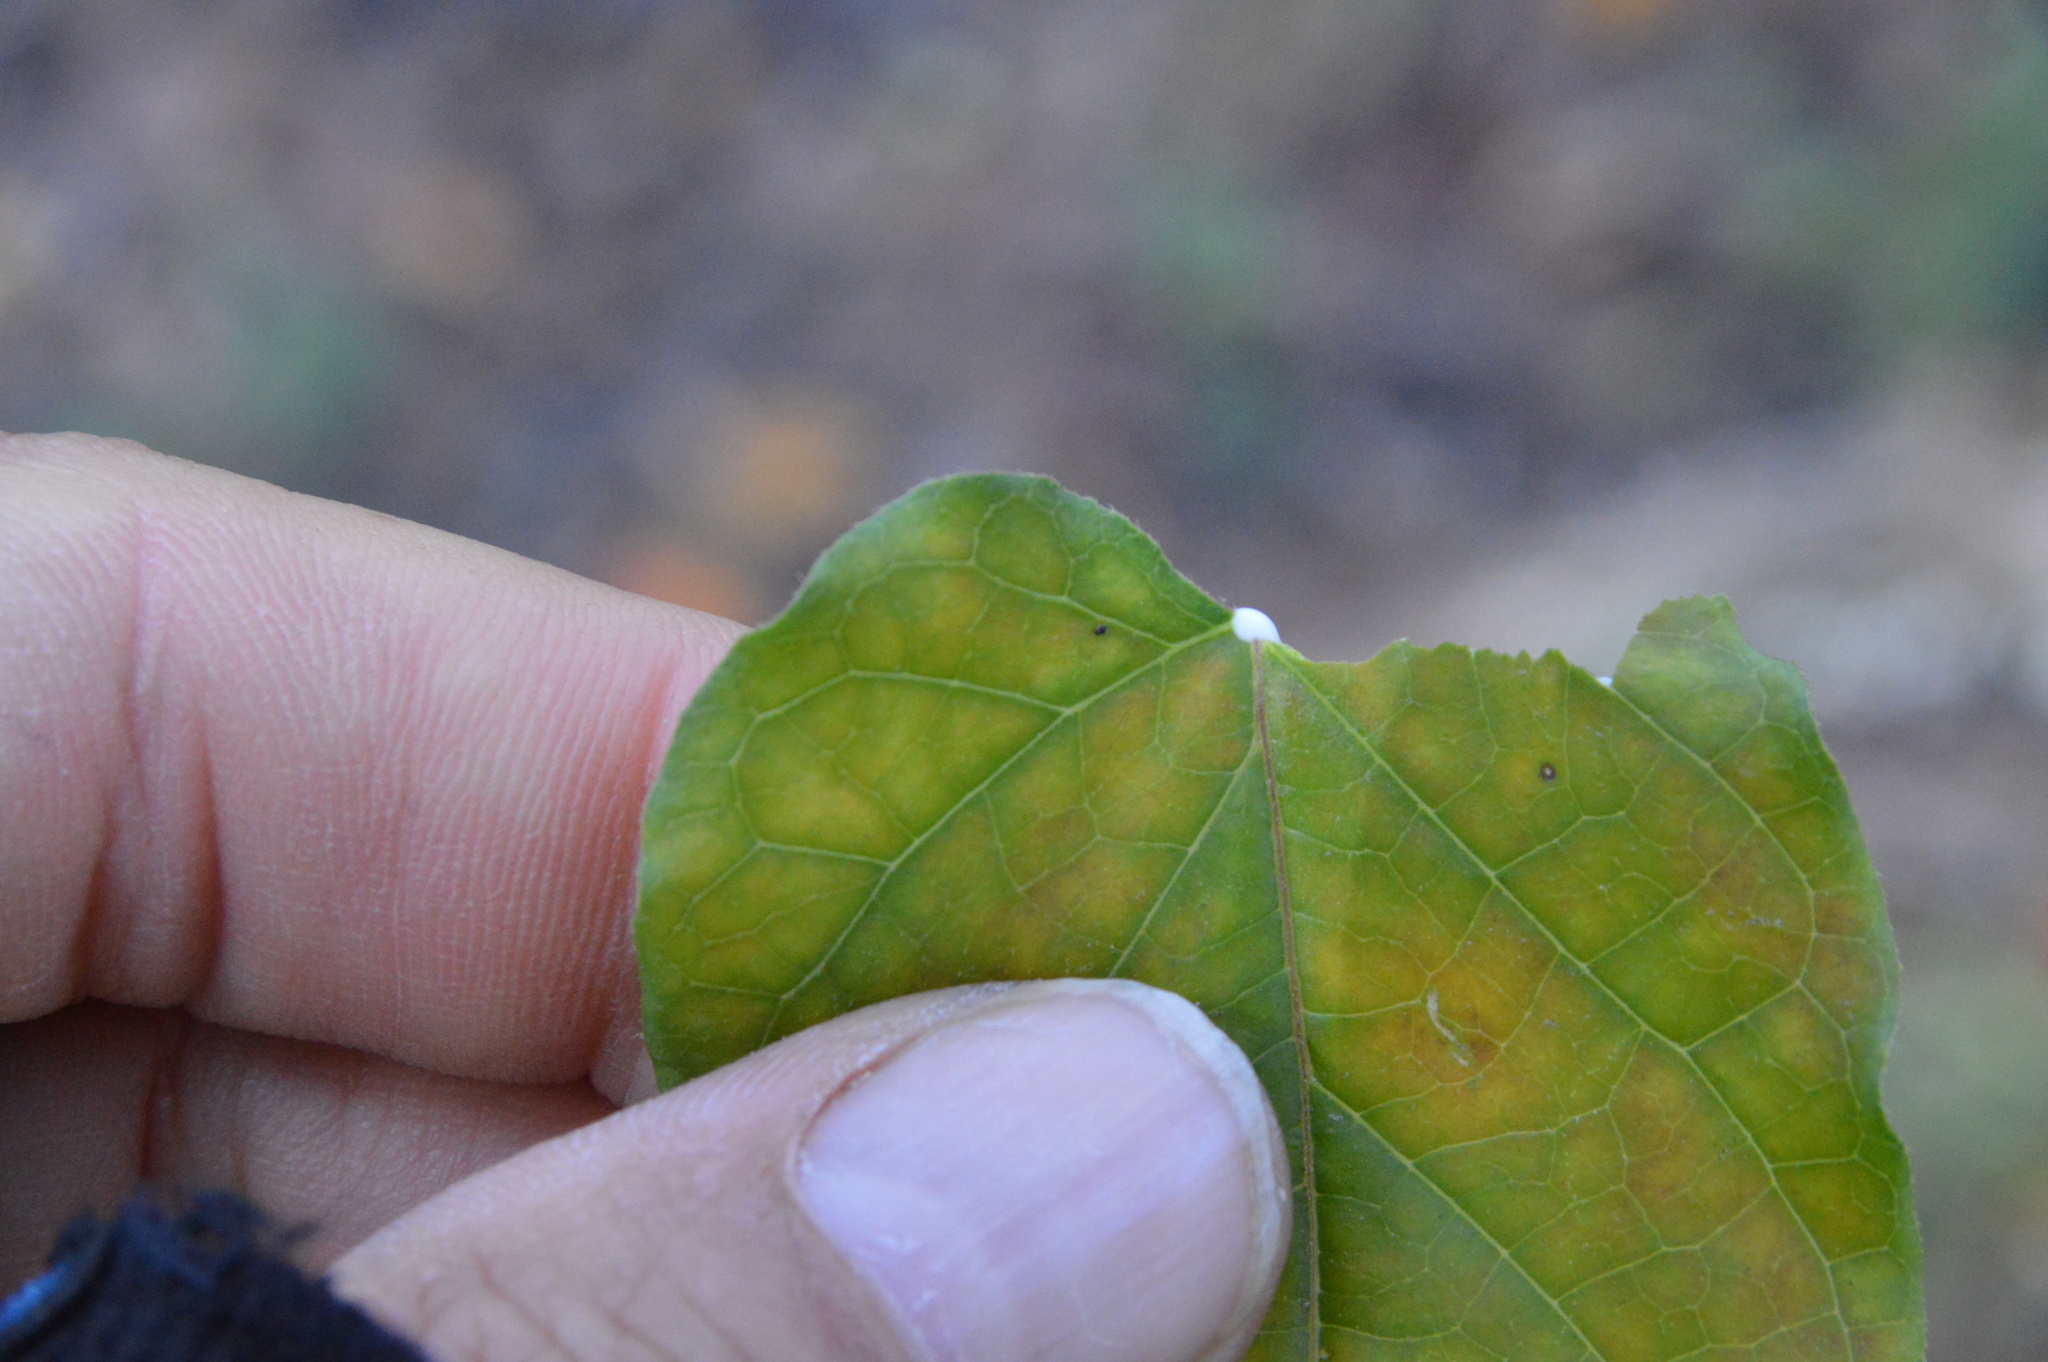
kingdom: Plantae
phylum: Tracheophyta
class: Magnoliopsida
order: Gentianales
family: Apocynaceae
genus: Gonolobus
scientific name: Gonolobus suberosus
